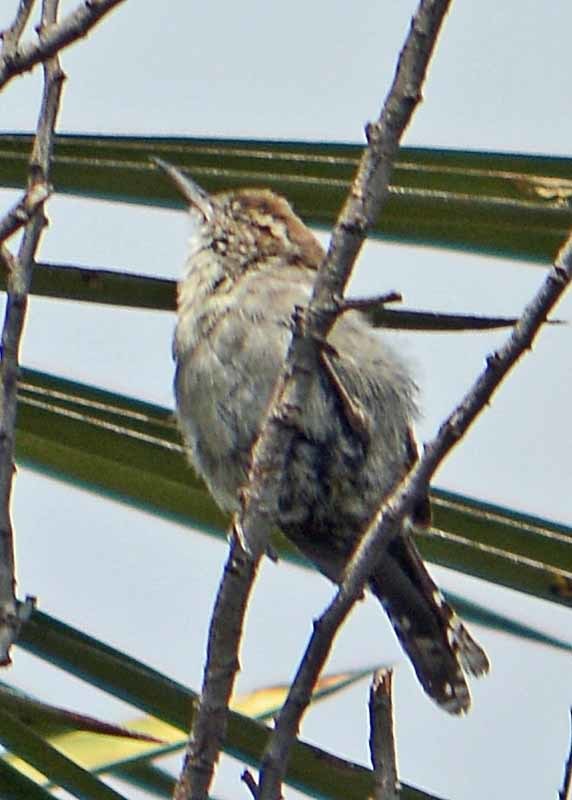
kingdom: Animalia
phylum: Chordata
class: Aves
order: Passeriformes
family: Troglodytidae
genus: Thryomanes
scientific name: Thryomanes bewickii
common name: Bewick's wren
